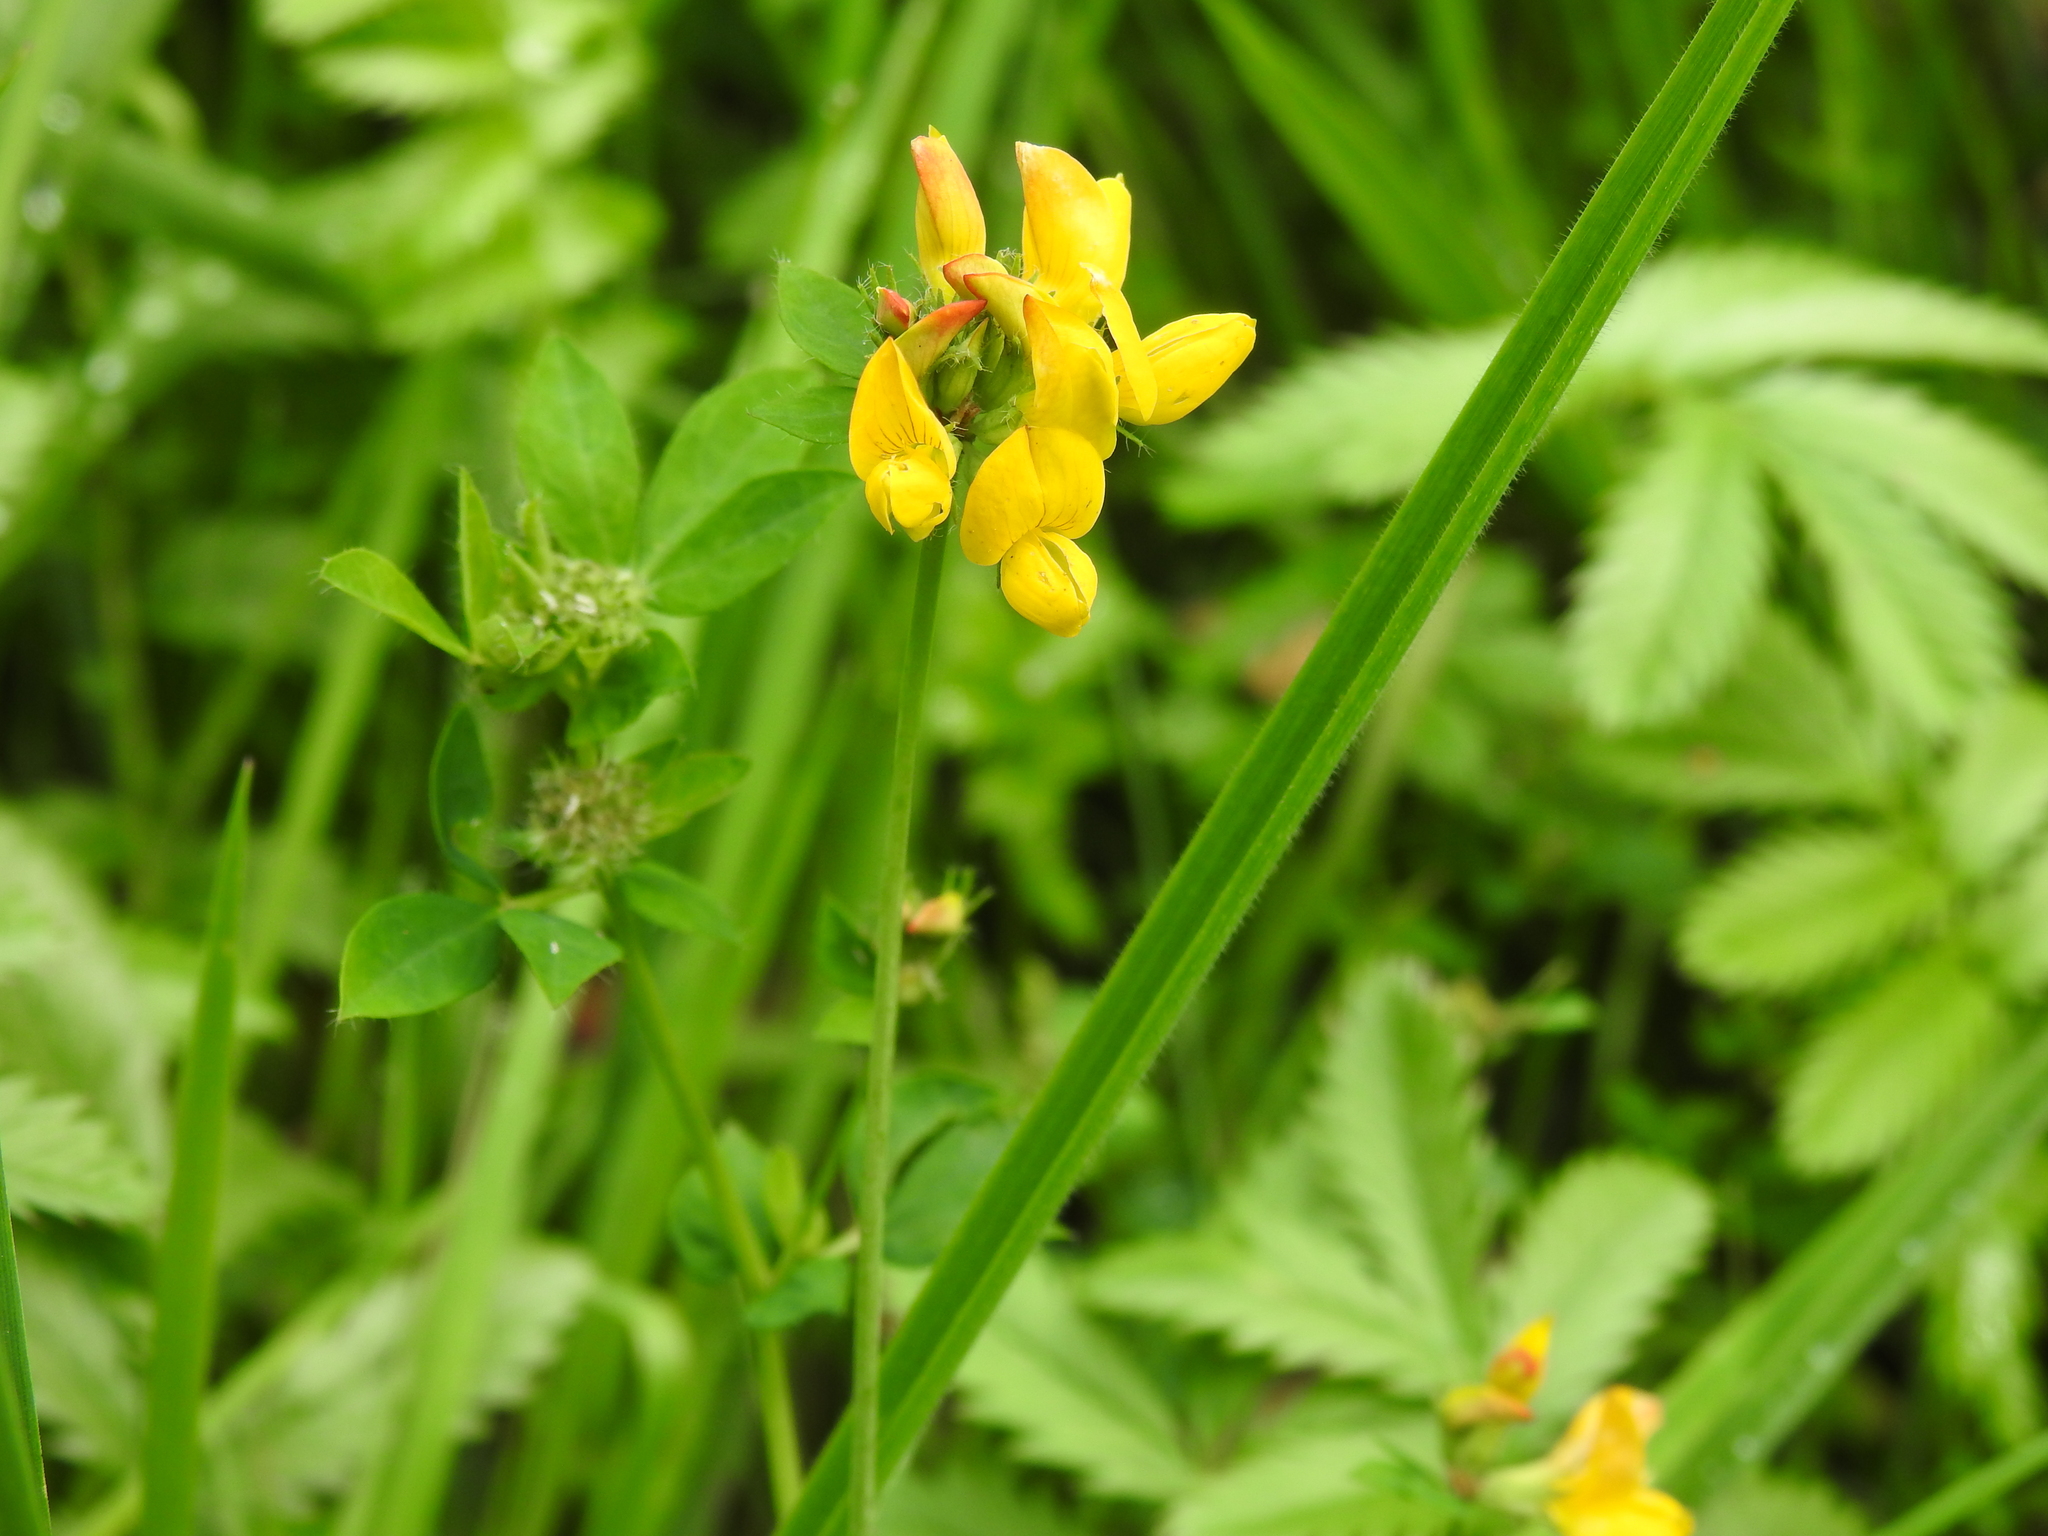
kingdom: Plantae
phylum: Tracheophyta
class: Magnoliopsida
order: Fabales
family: Fabaceae
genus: Lotus
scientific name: Lotus pedunculatus
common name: Greater birdsfoot-trefoil
